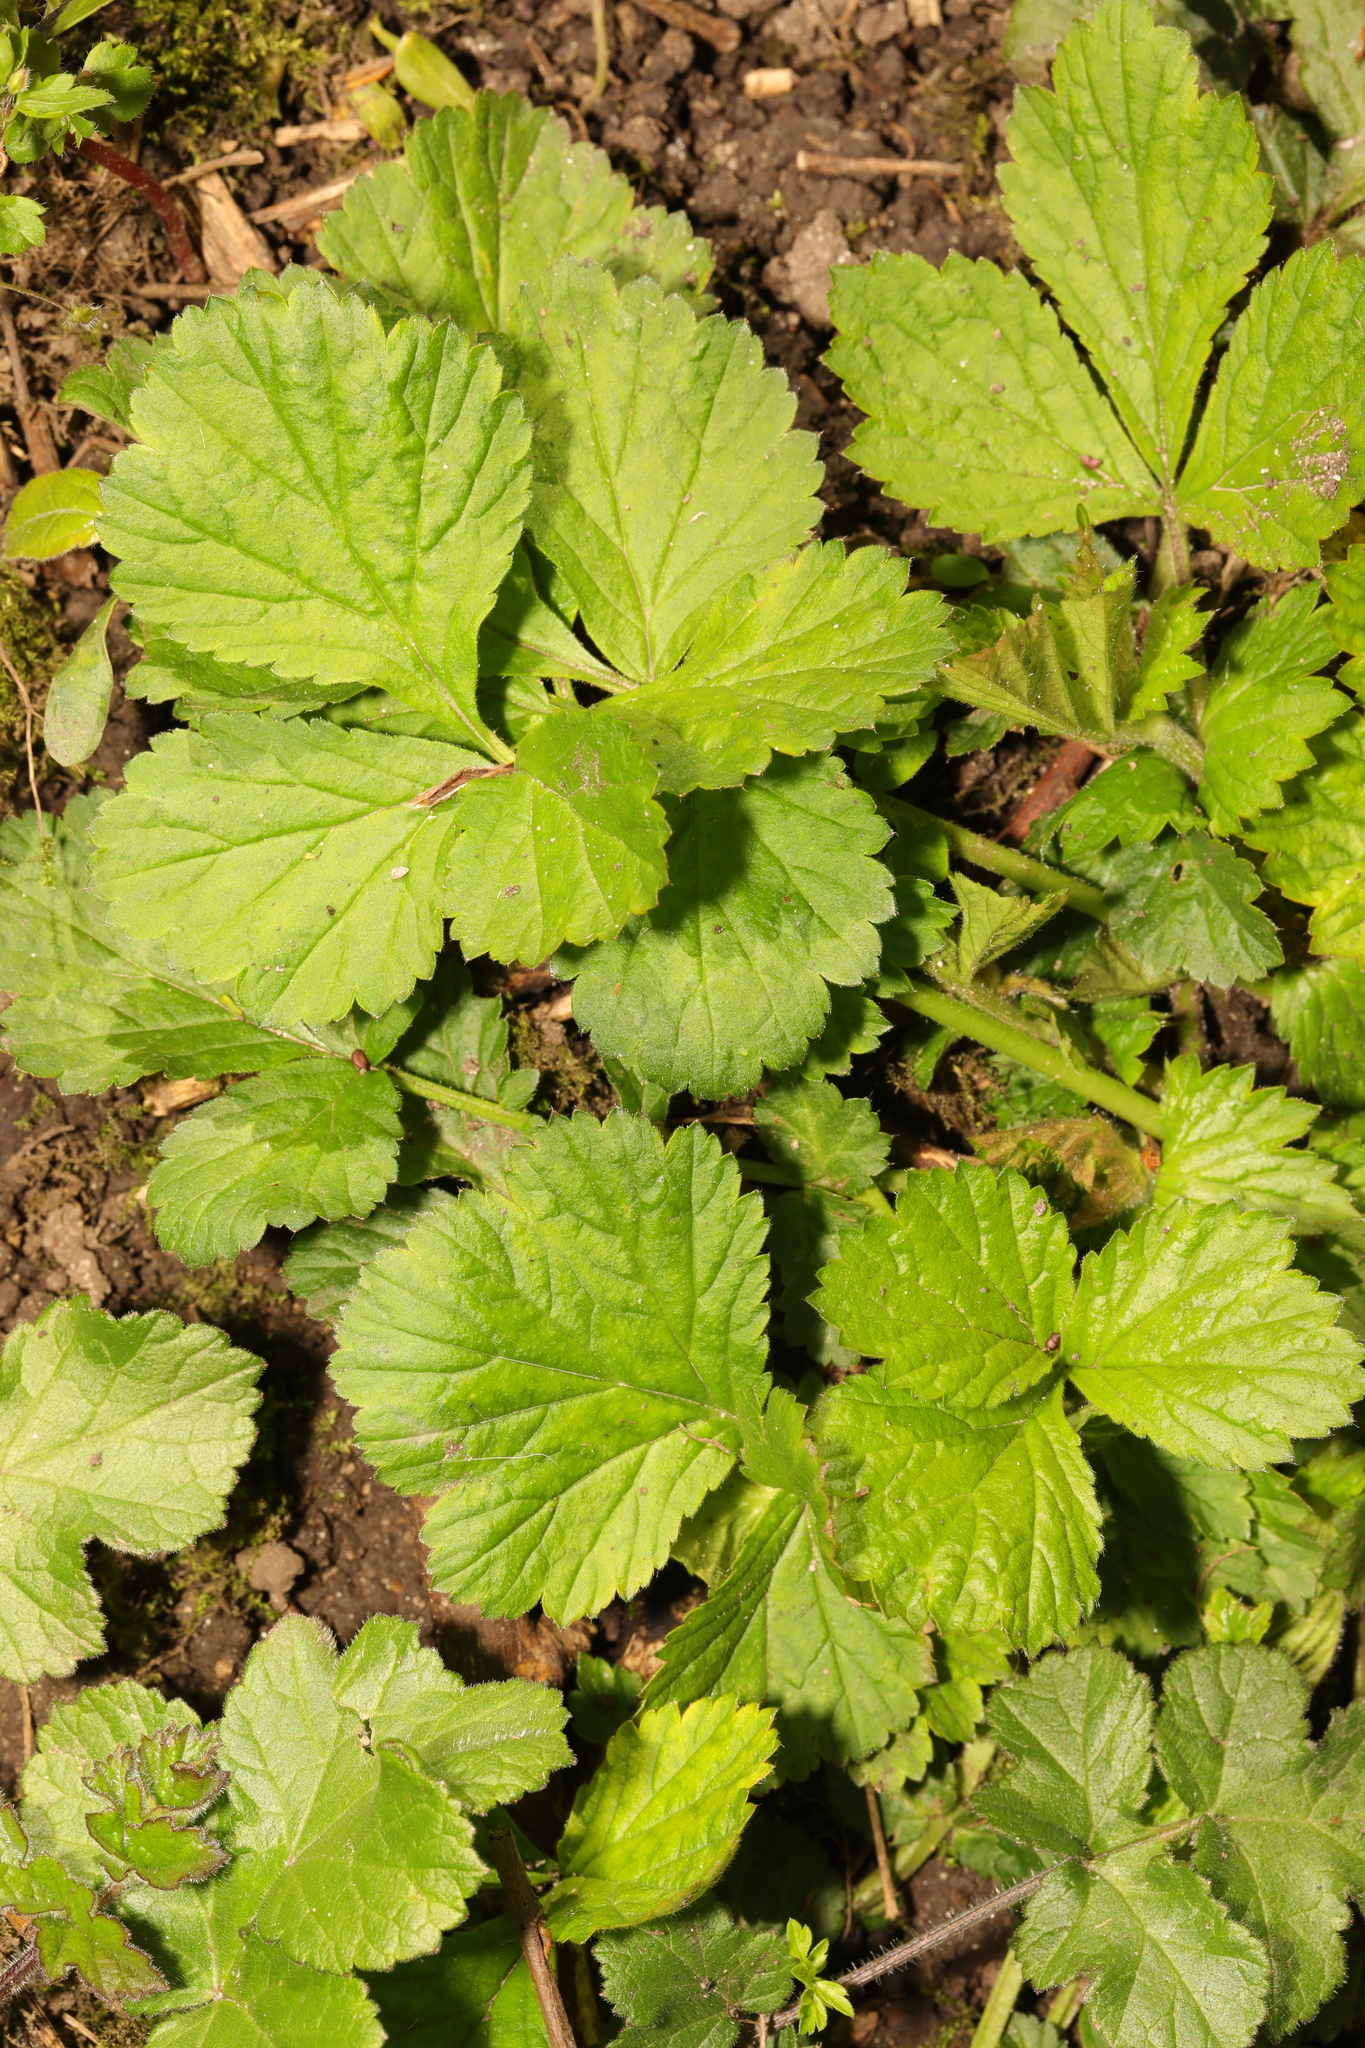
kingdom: Plantae
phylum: Tracheophyta
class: Magnoliopsida
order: Rosales
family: Rosaceae
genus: Geum
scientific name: Geum urbanum
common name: Wood avens
